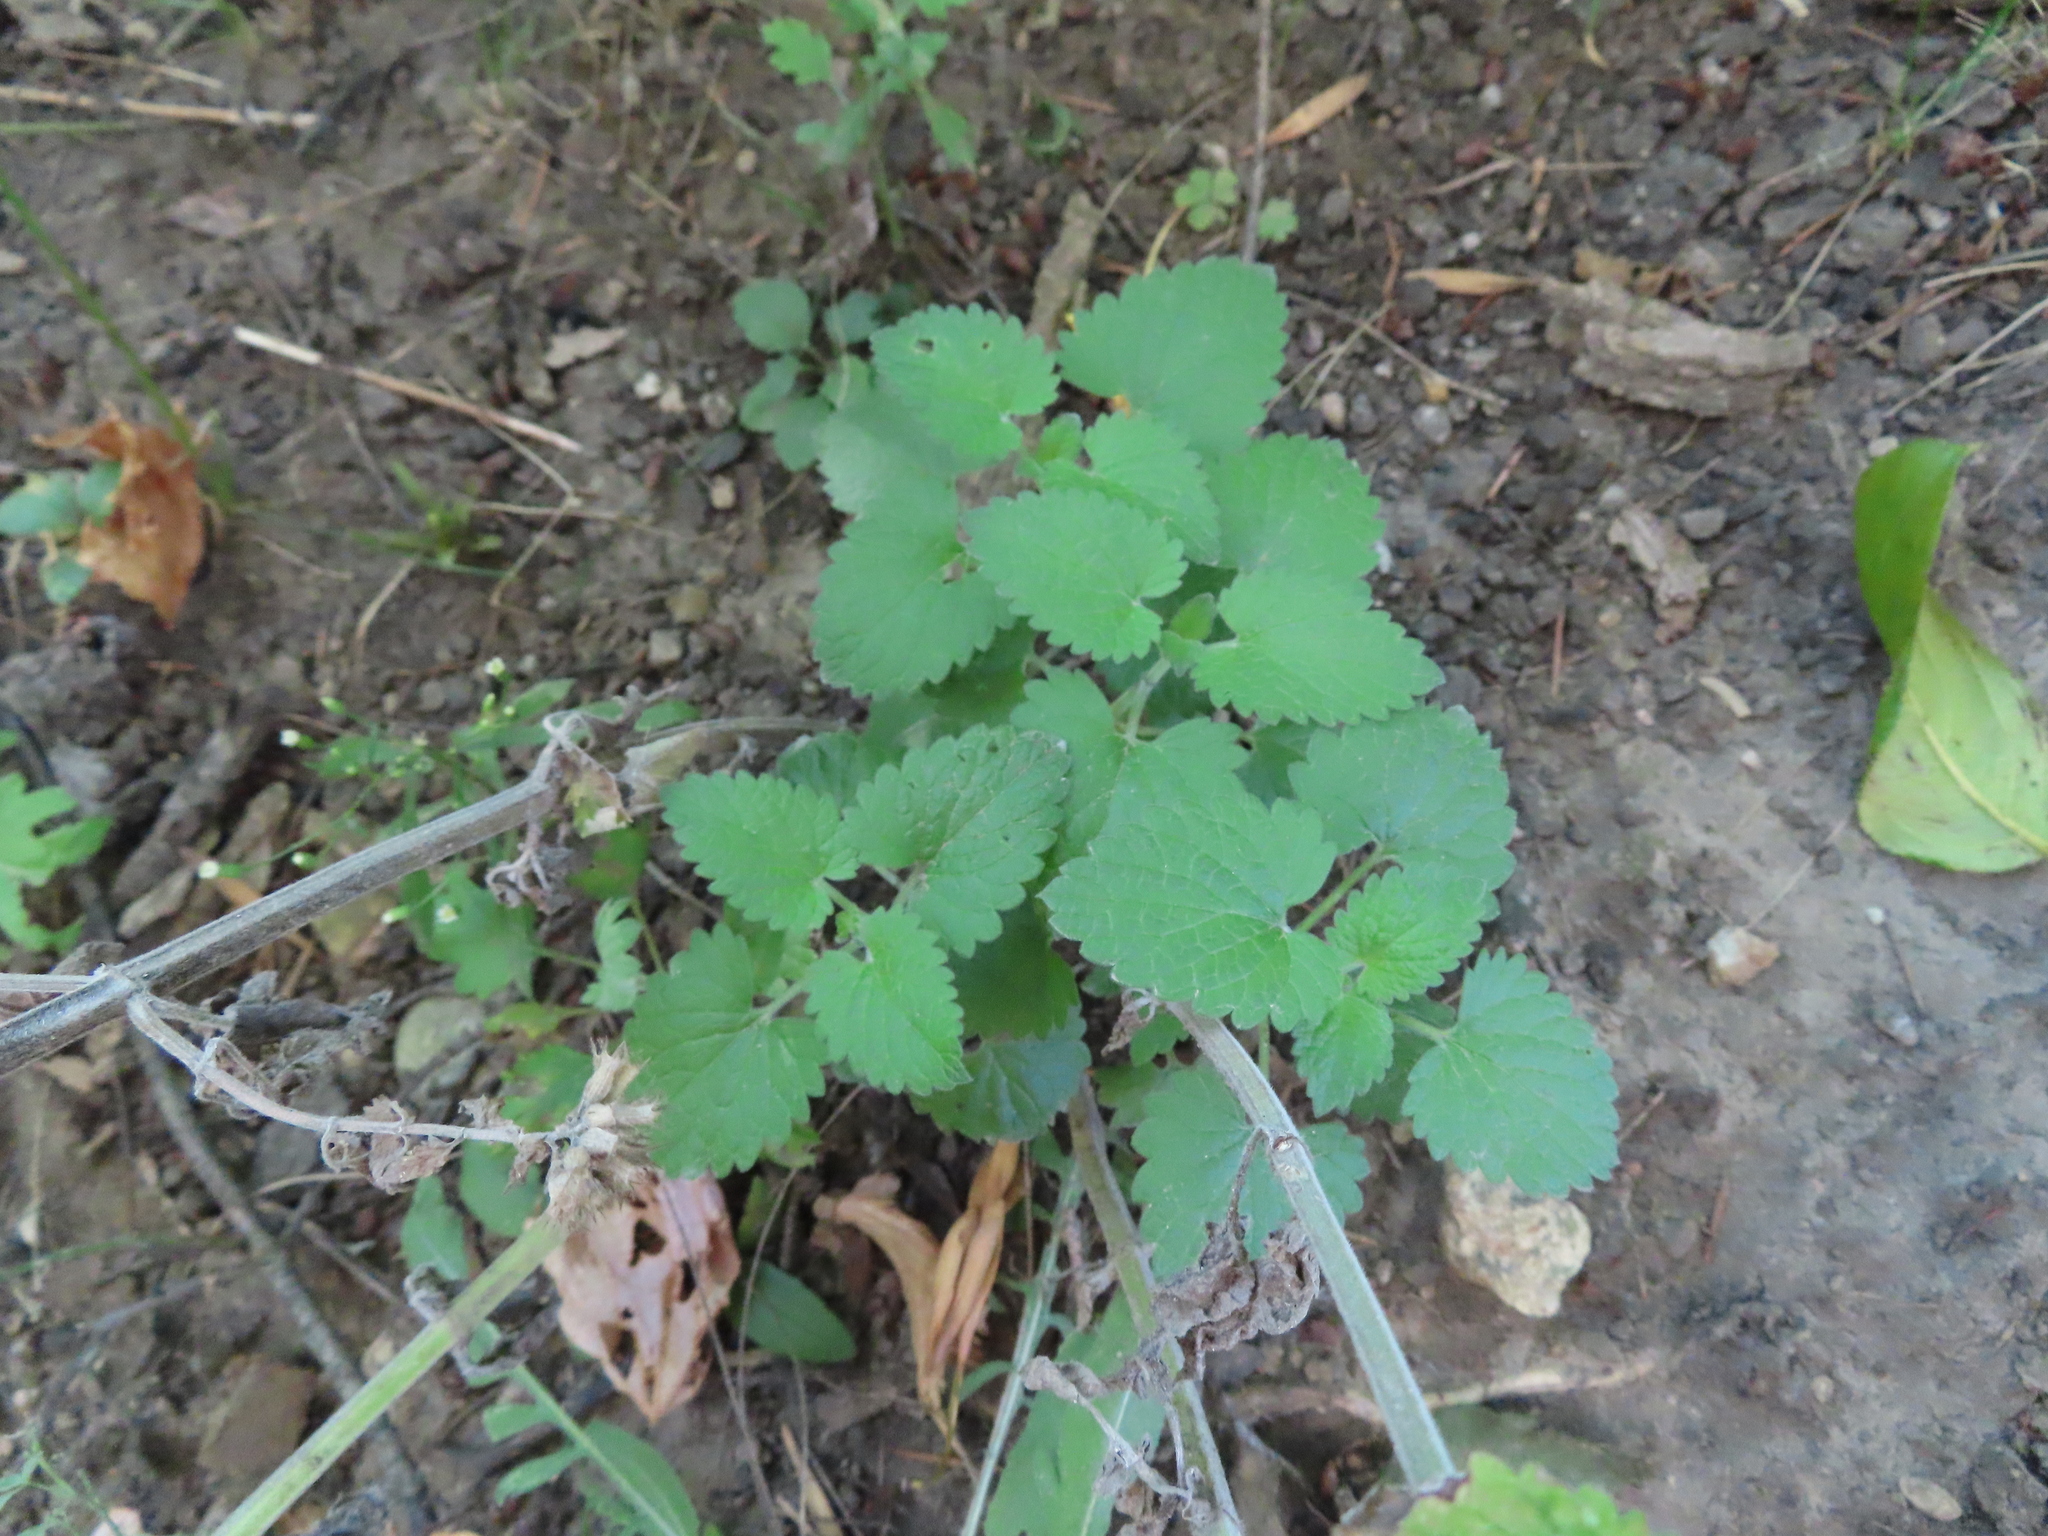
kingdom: Plantae
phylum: Tracheophyta
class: Magnoliopsida
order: Lamiales
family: Lamiaceae
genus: Nepeta
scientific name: Nepeta cataria
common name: Catnip
